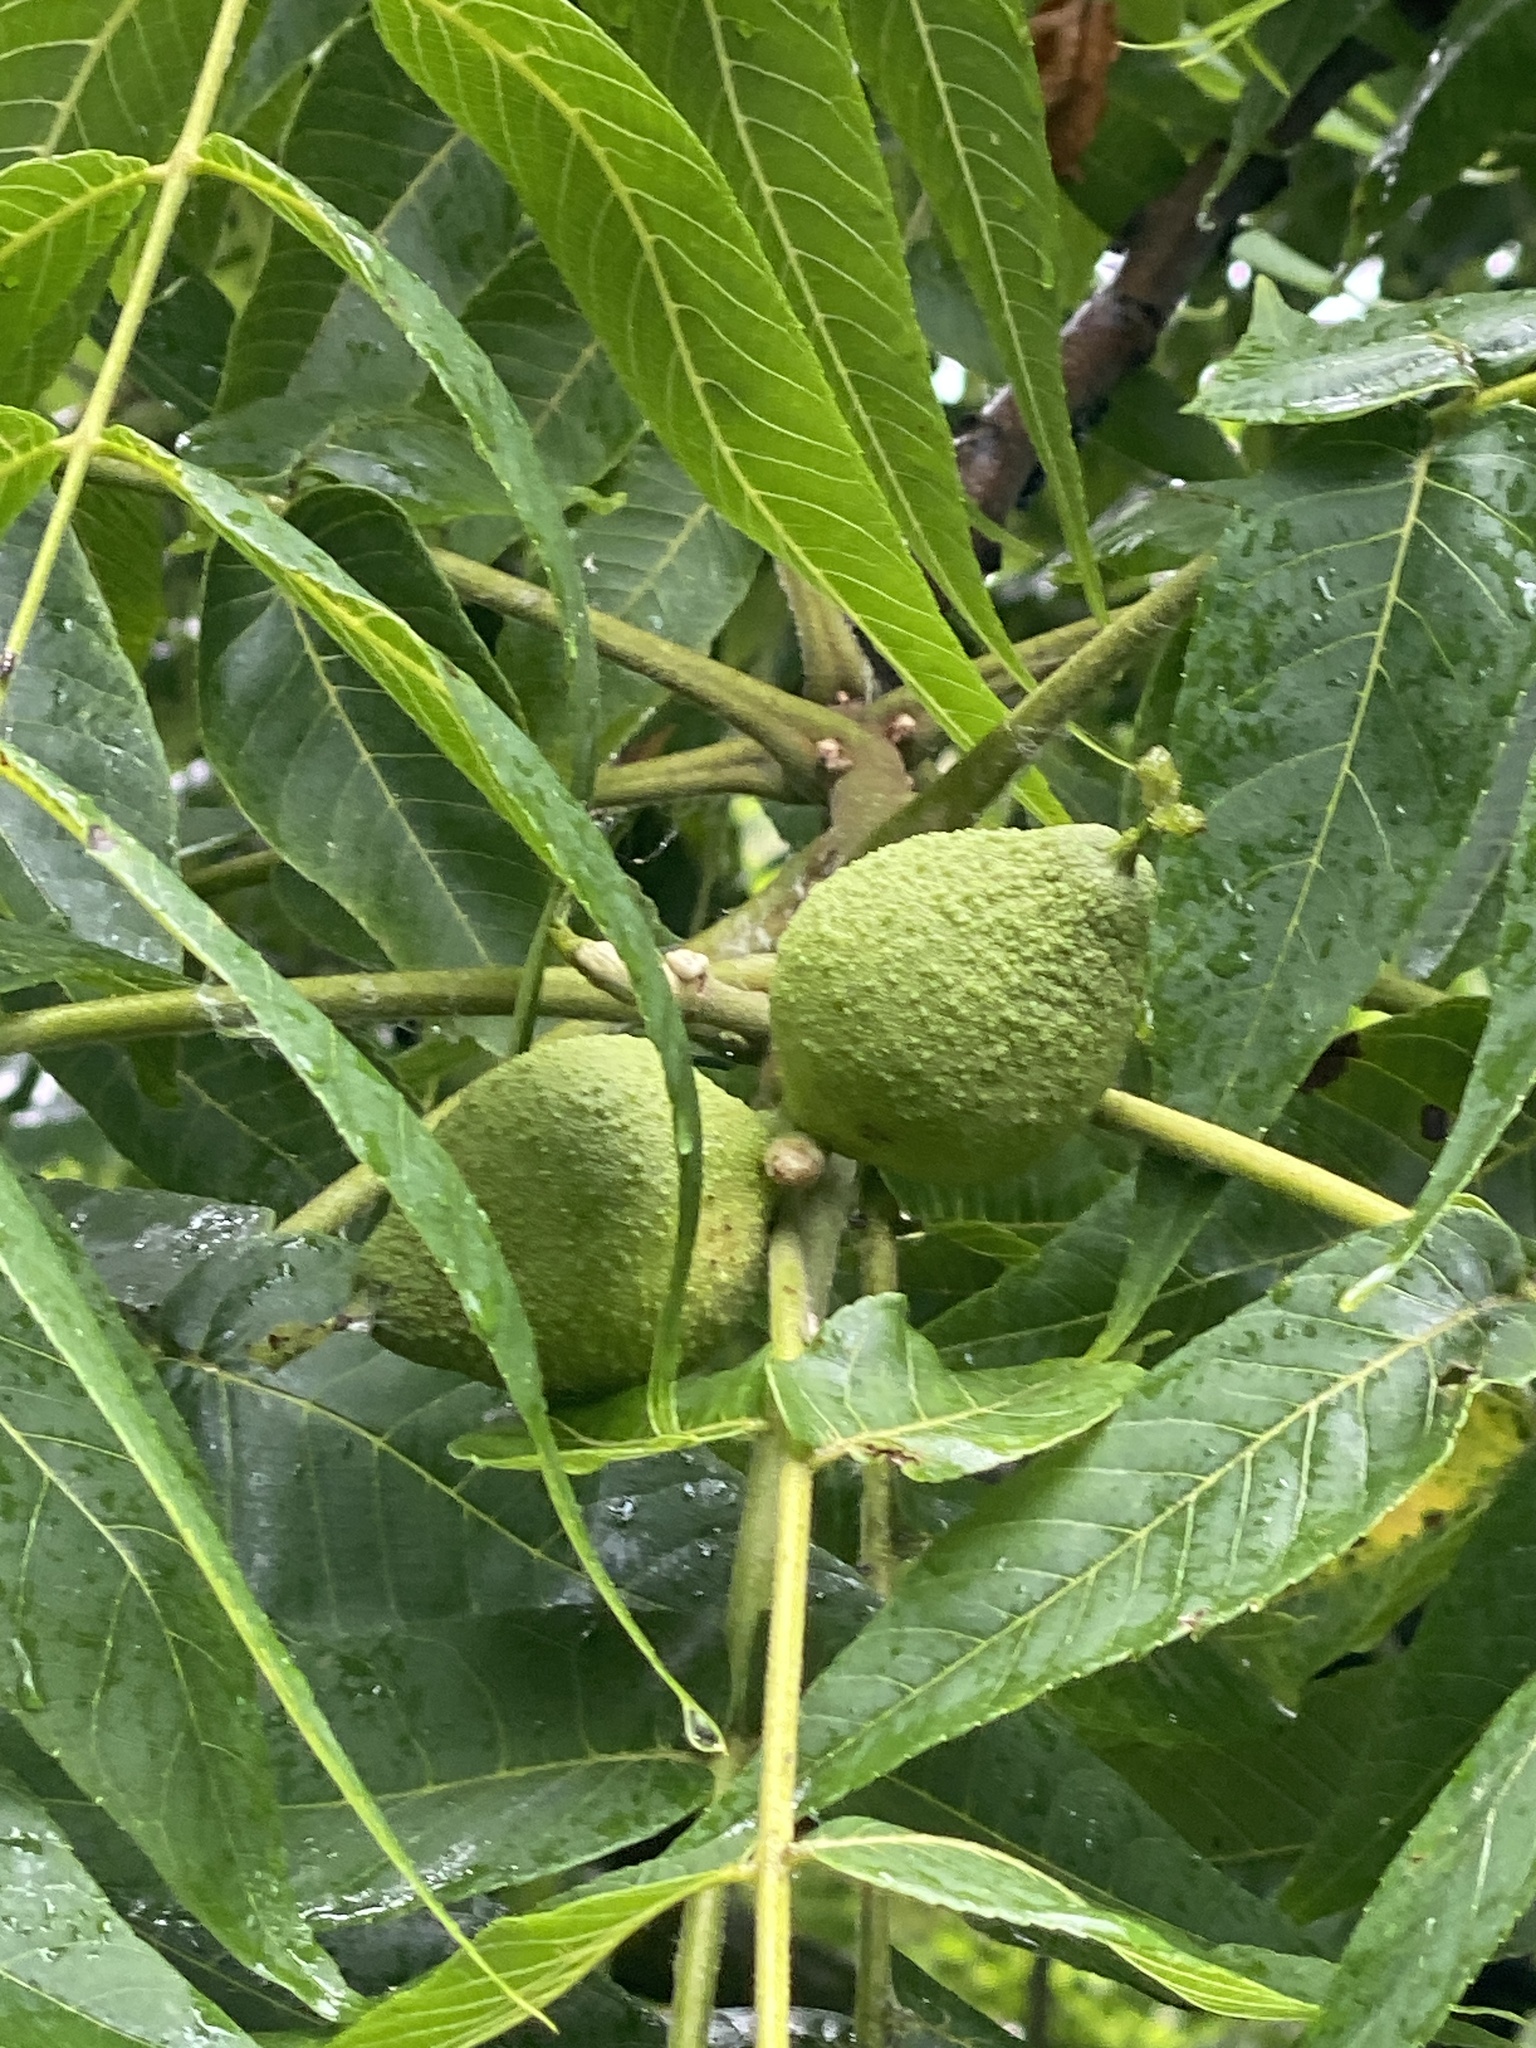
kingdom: Plantae
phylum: Tracheophyta
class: Magnoliopsida
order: Fagales
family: Juglandaceae
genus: Juglans
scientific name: Juglans nigra
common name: Black walnut
